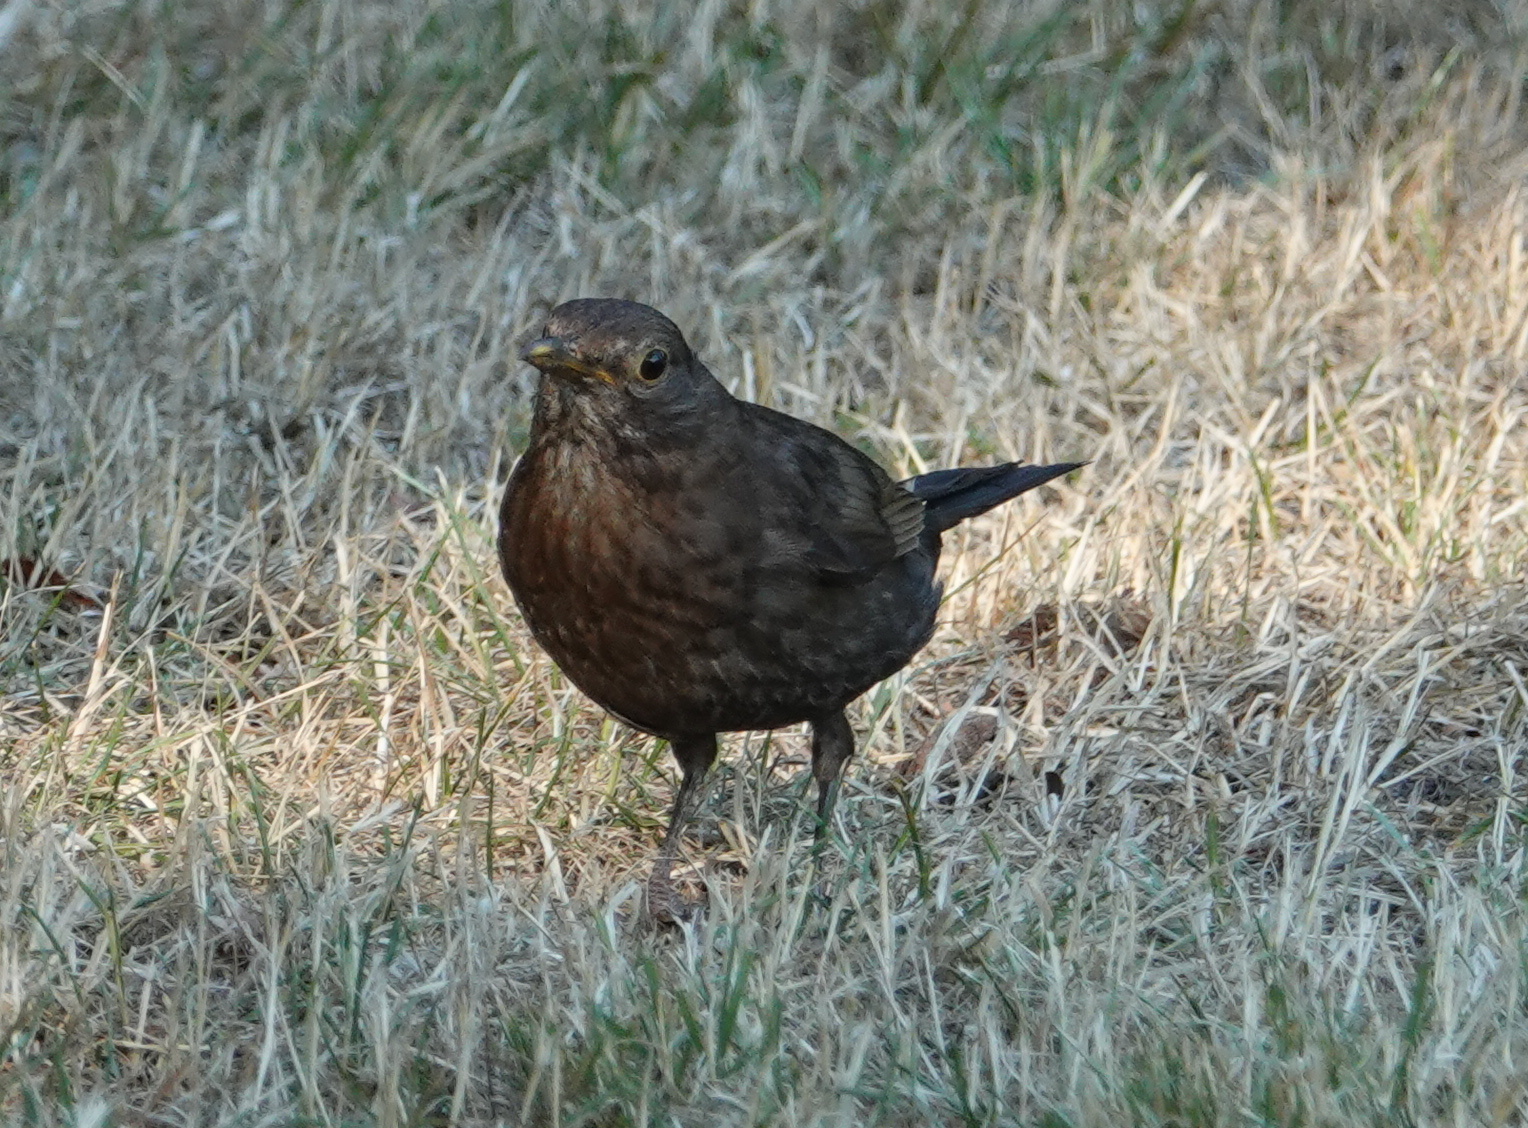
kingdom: Animalia
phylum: Chordata
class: Aves
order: Passeriformes
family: Turdidae
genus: Turdus
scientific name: Turdus merula
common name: Common blackbird
